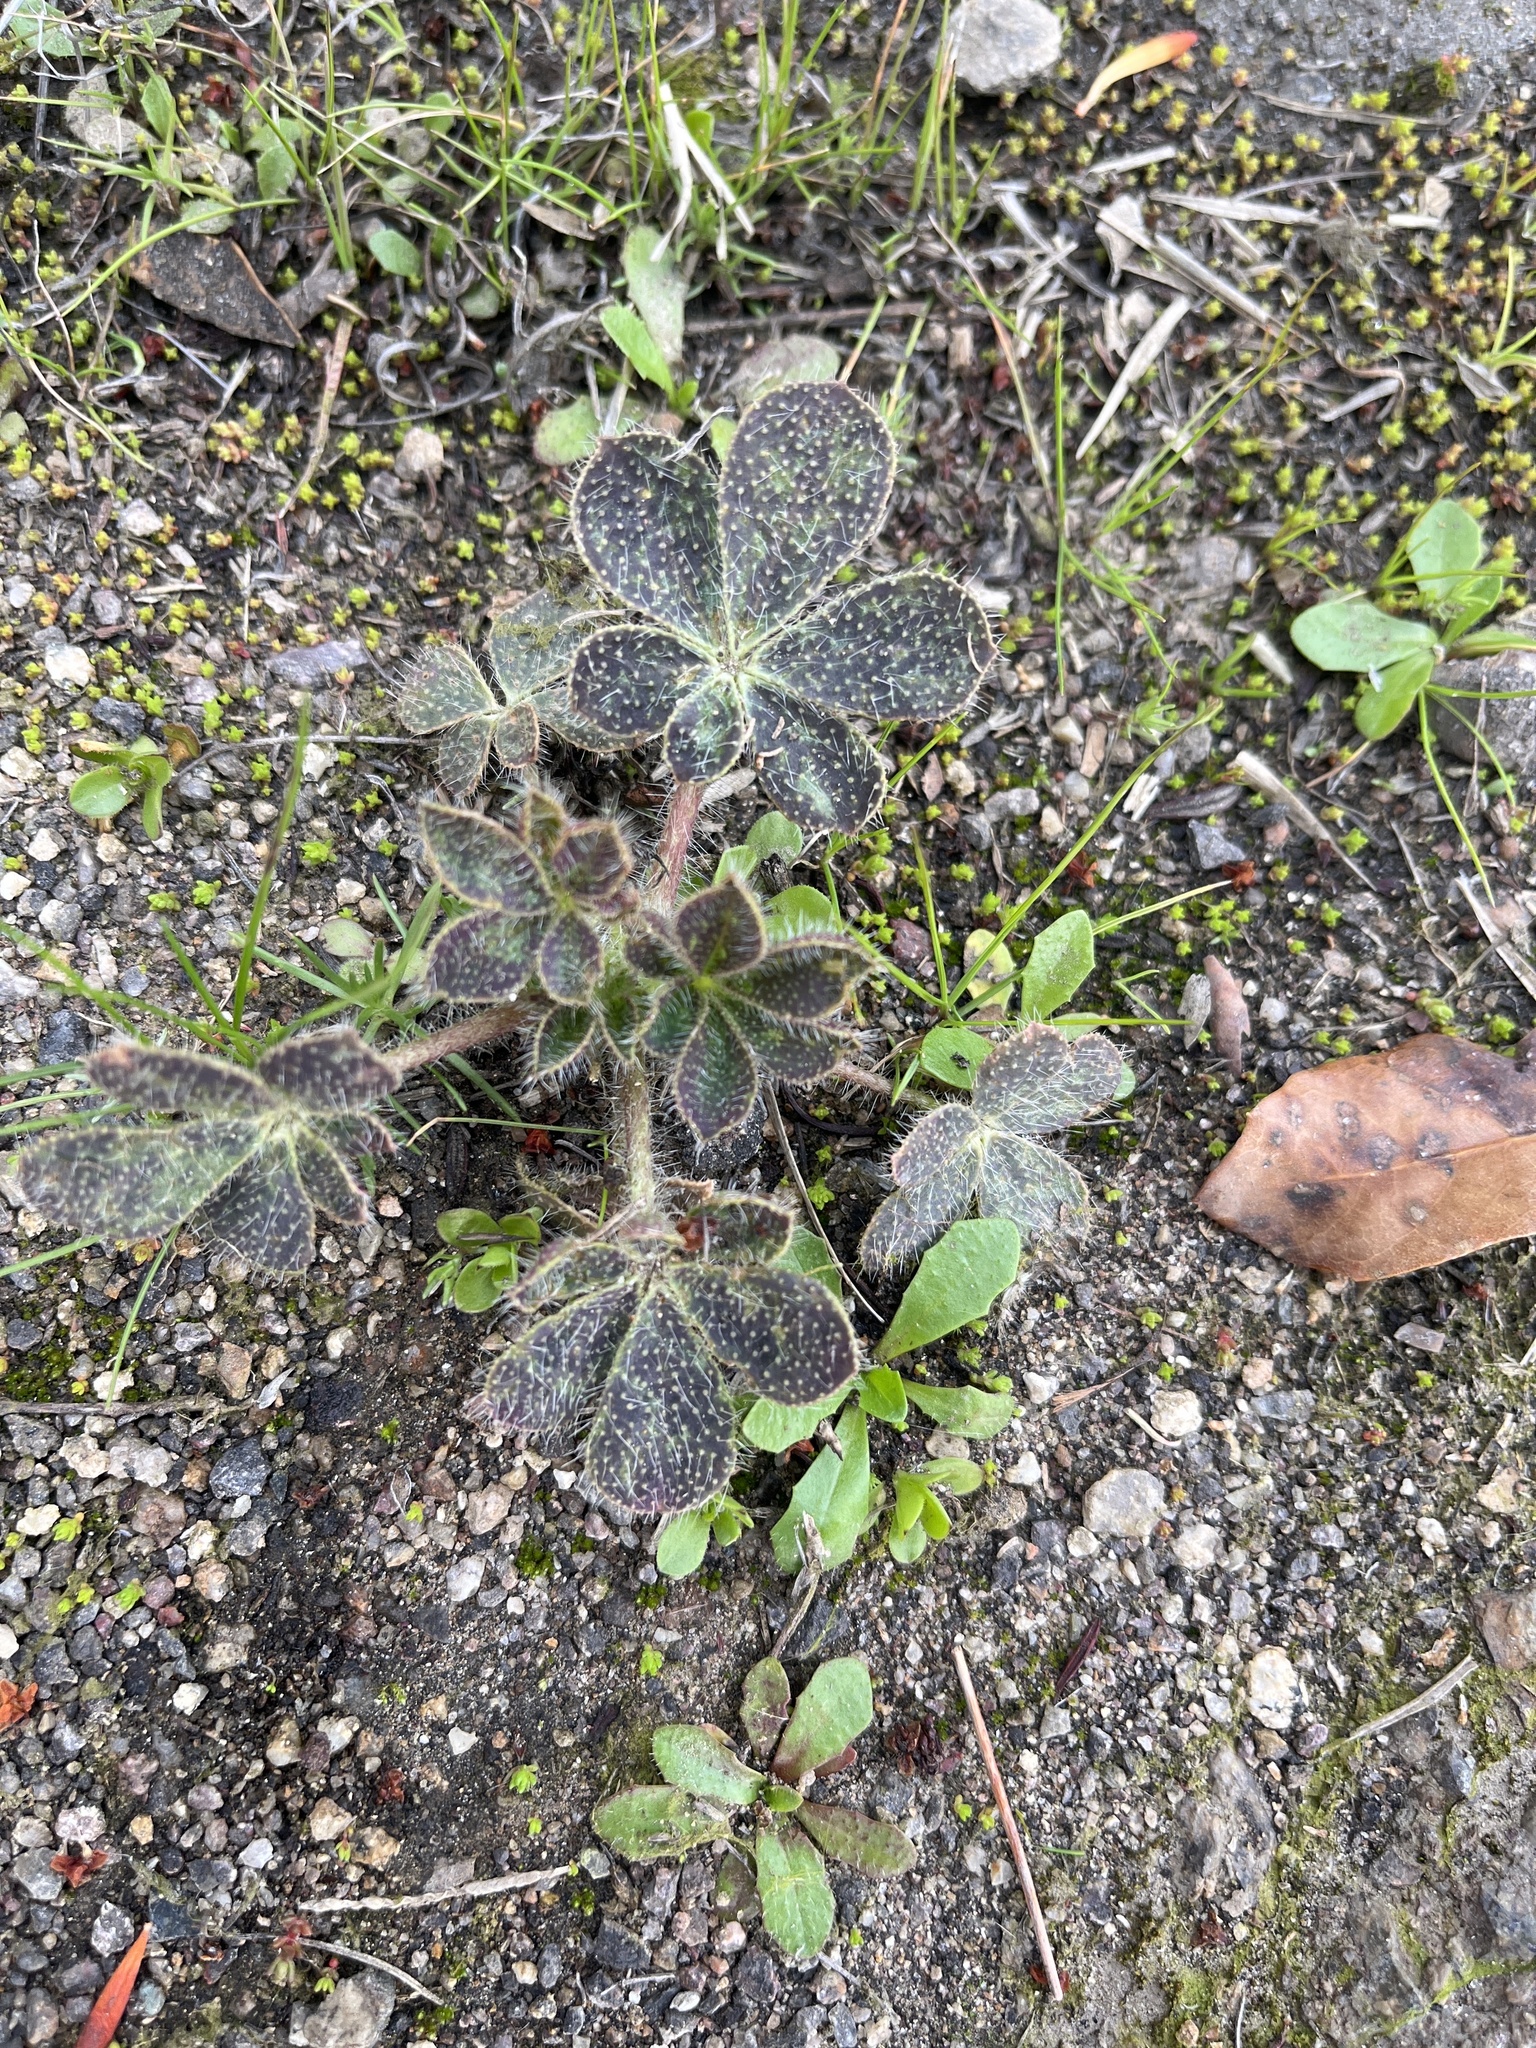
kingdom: Plantae
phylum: Tracheophyta
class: Magnoliopsida
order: Fabales
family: Fabaceae
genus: Lupinus
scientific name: Lupinus hirsutissimus
